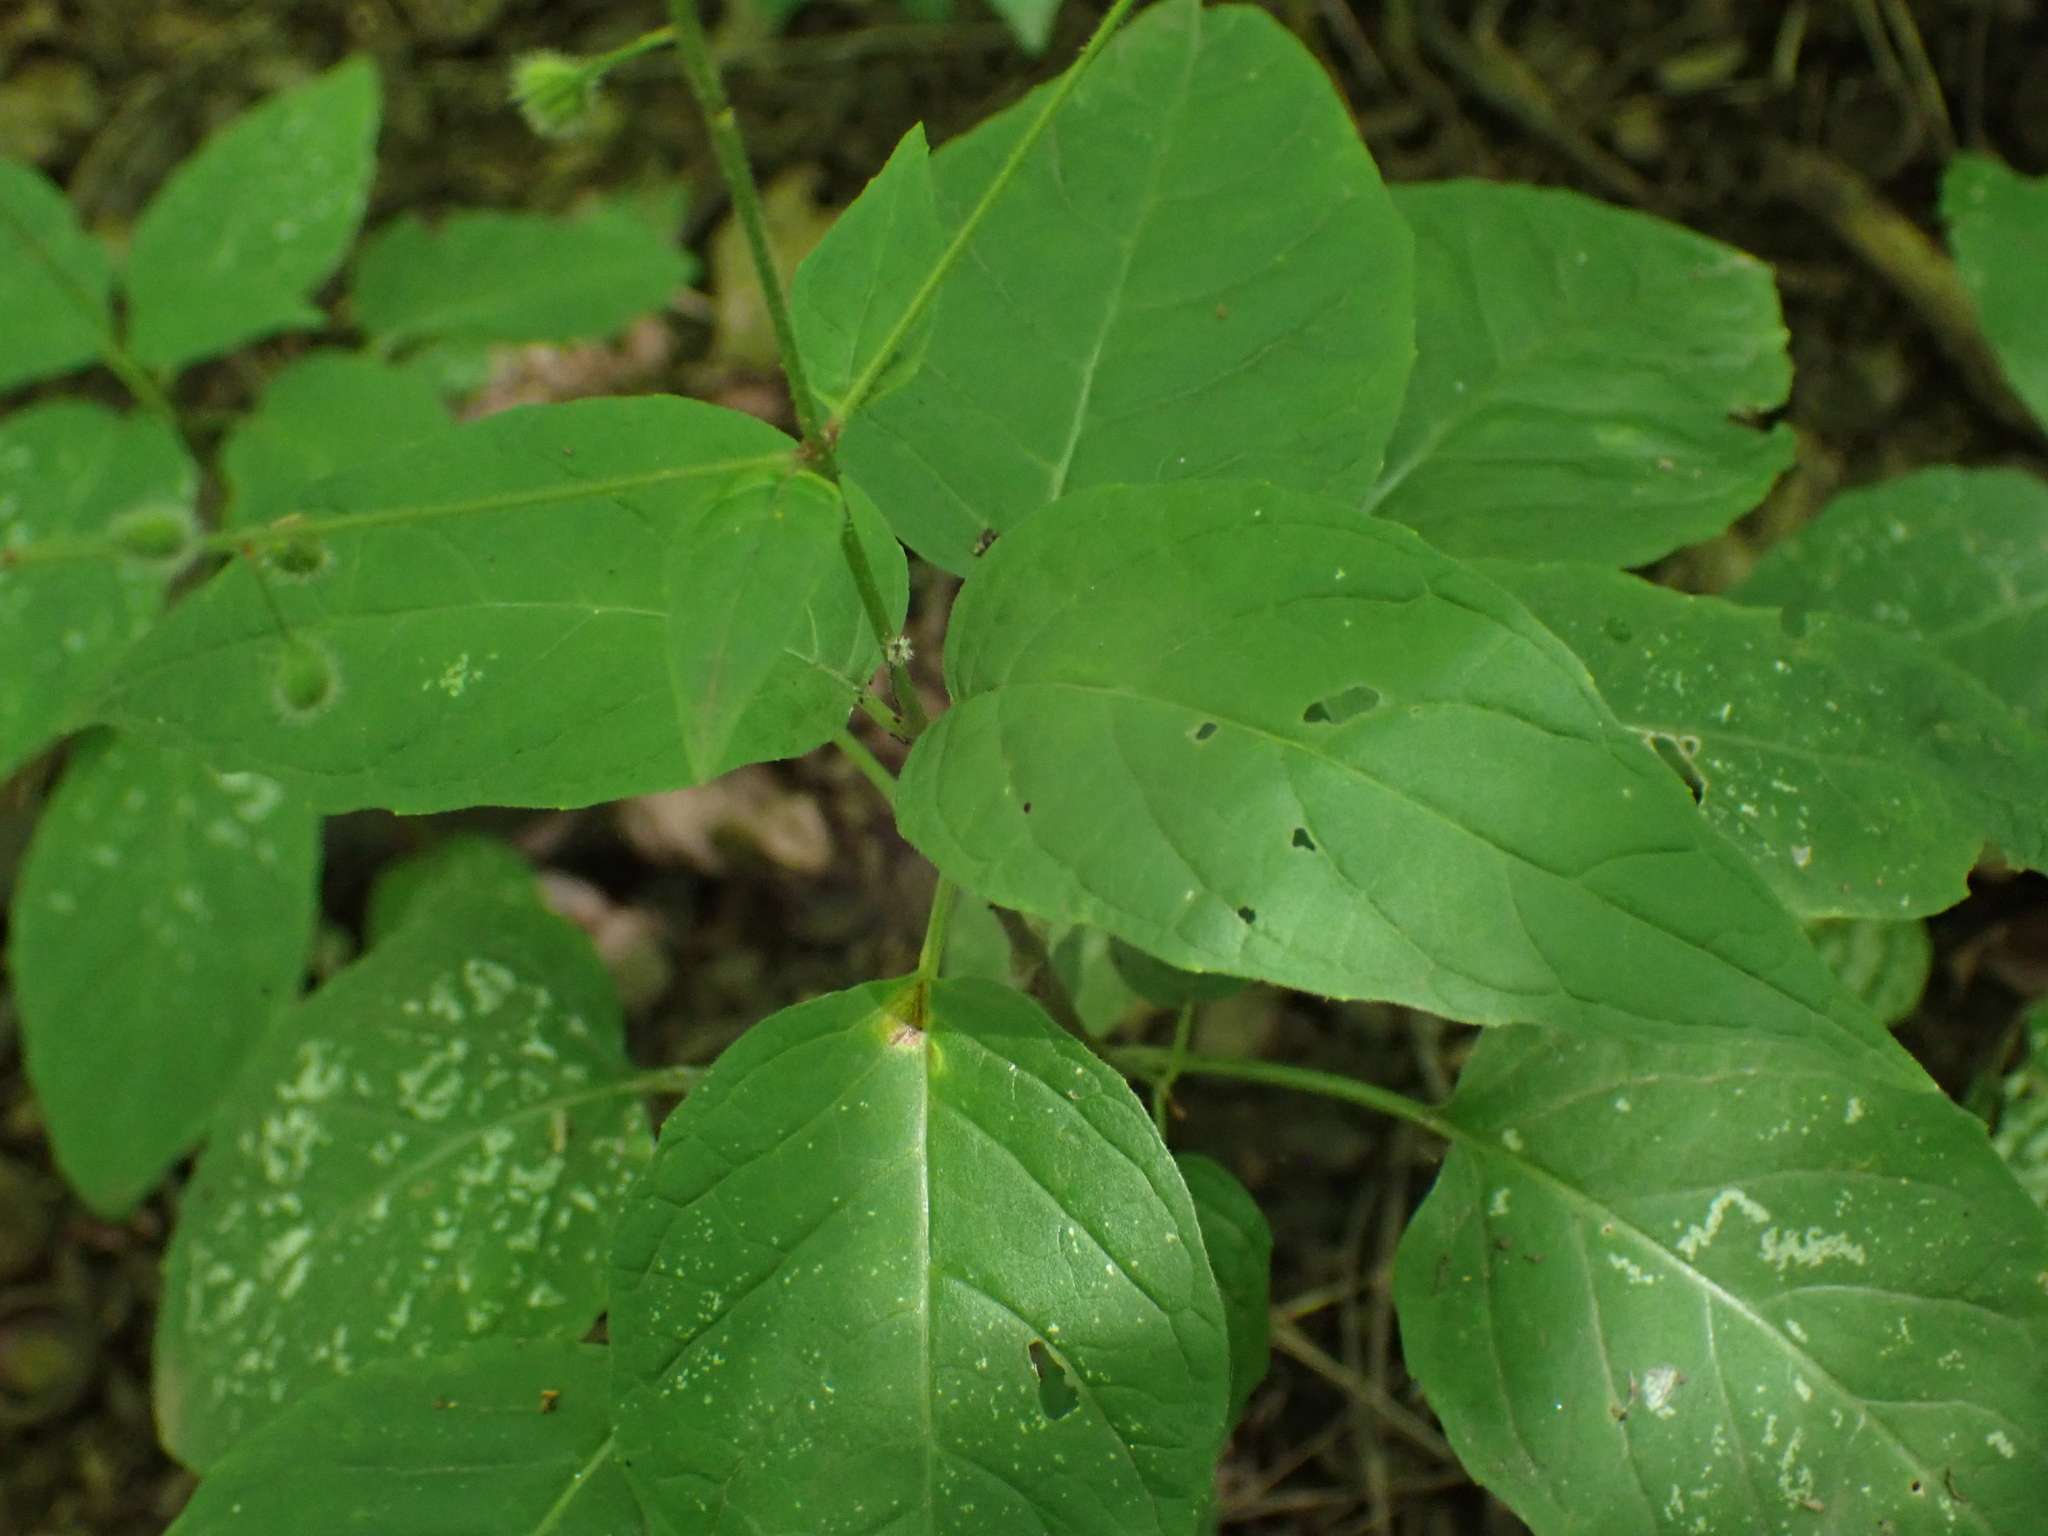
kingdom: Plantae
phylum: Tracheophyta
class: Magnoliopsida
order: Myrtales
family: Onagraceae
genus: Circaea
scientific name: Circaea canadensis
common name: Broad-leaved enchanter's nightshade
